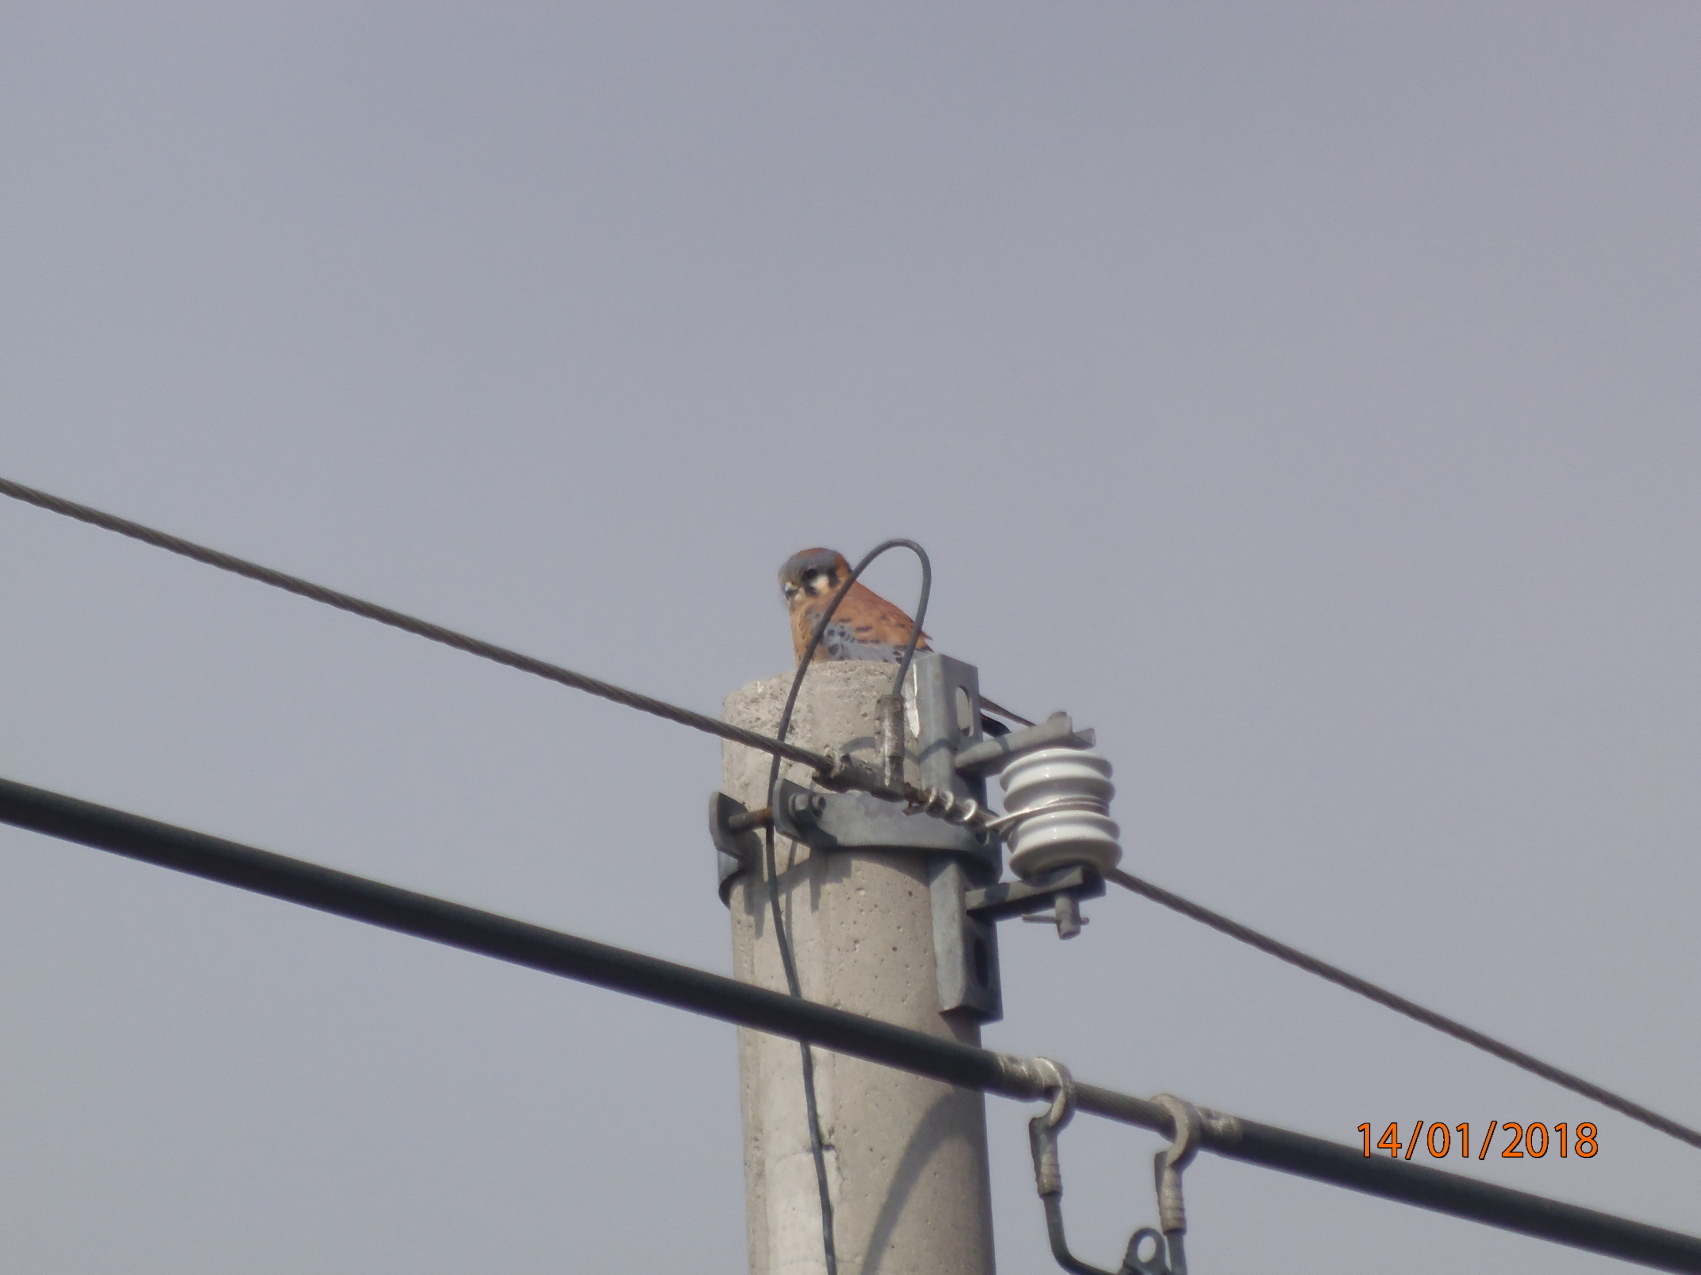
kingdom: Animalia
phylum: Chordata
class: Aves
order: Falconiformes
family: Falconidae
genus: Falco
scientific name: Falco sparverius
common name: American kestrel
